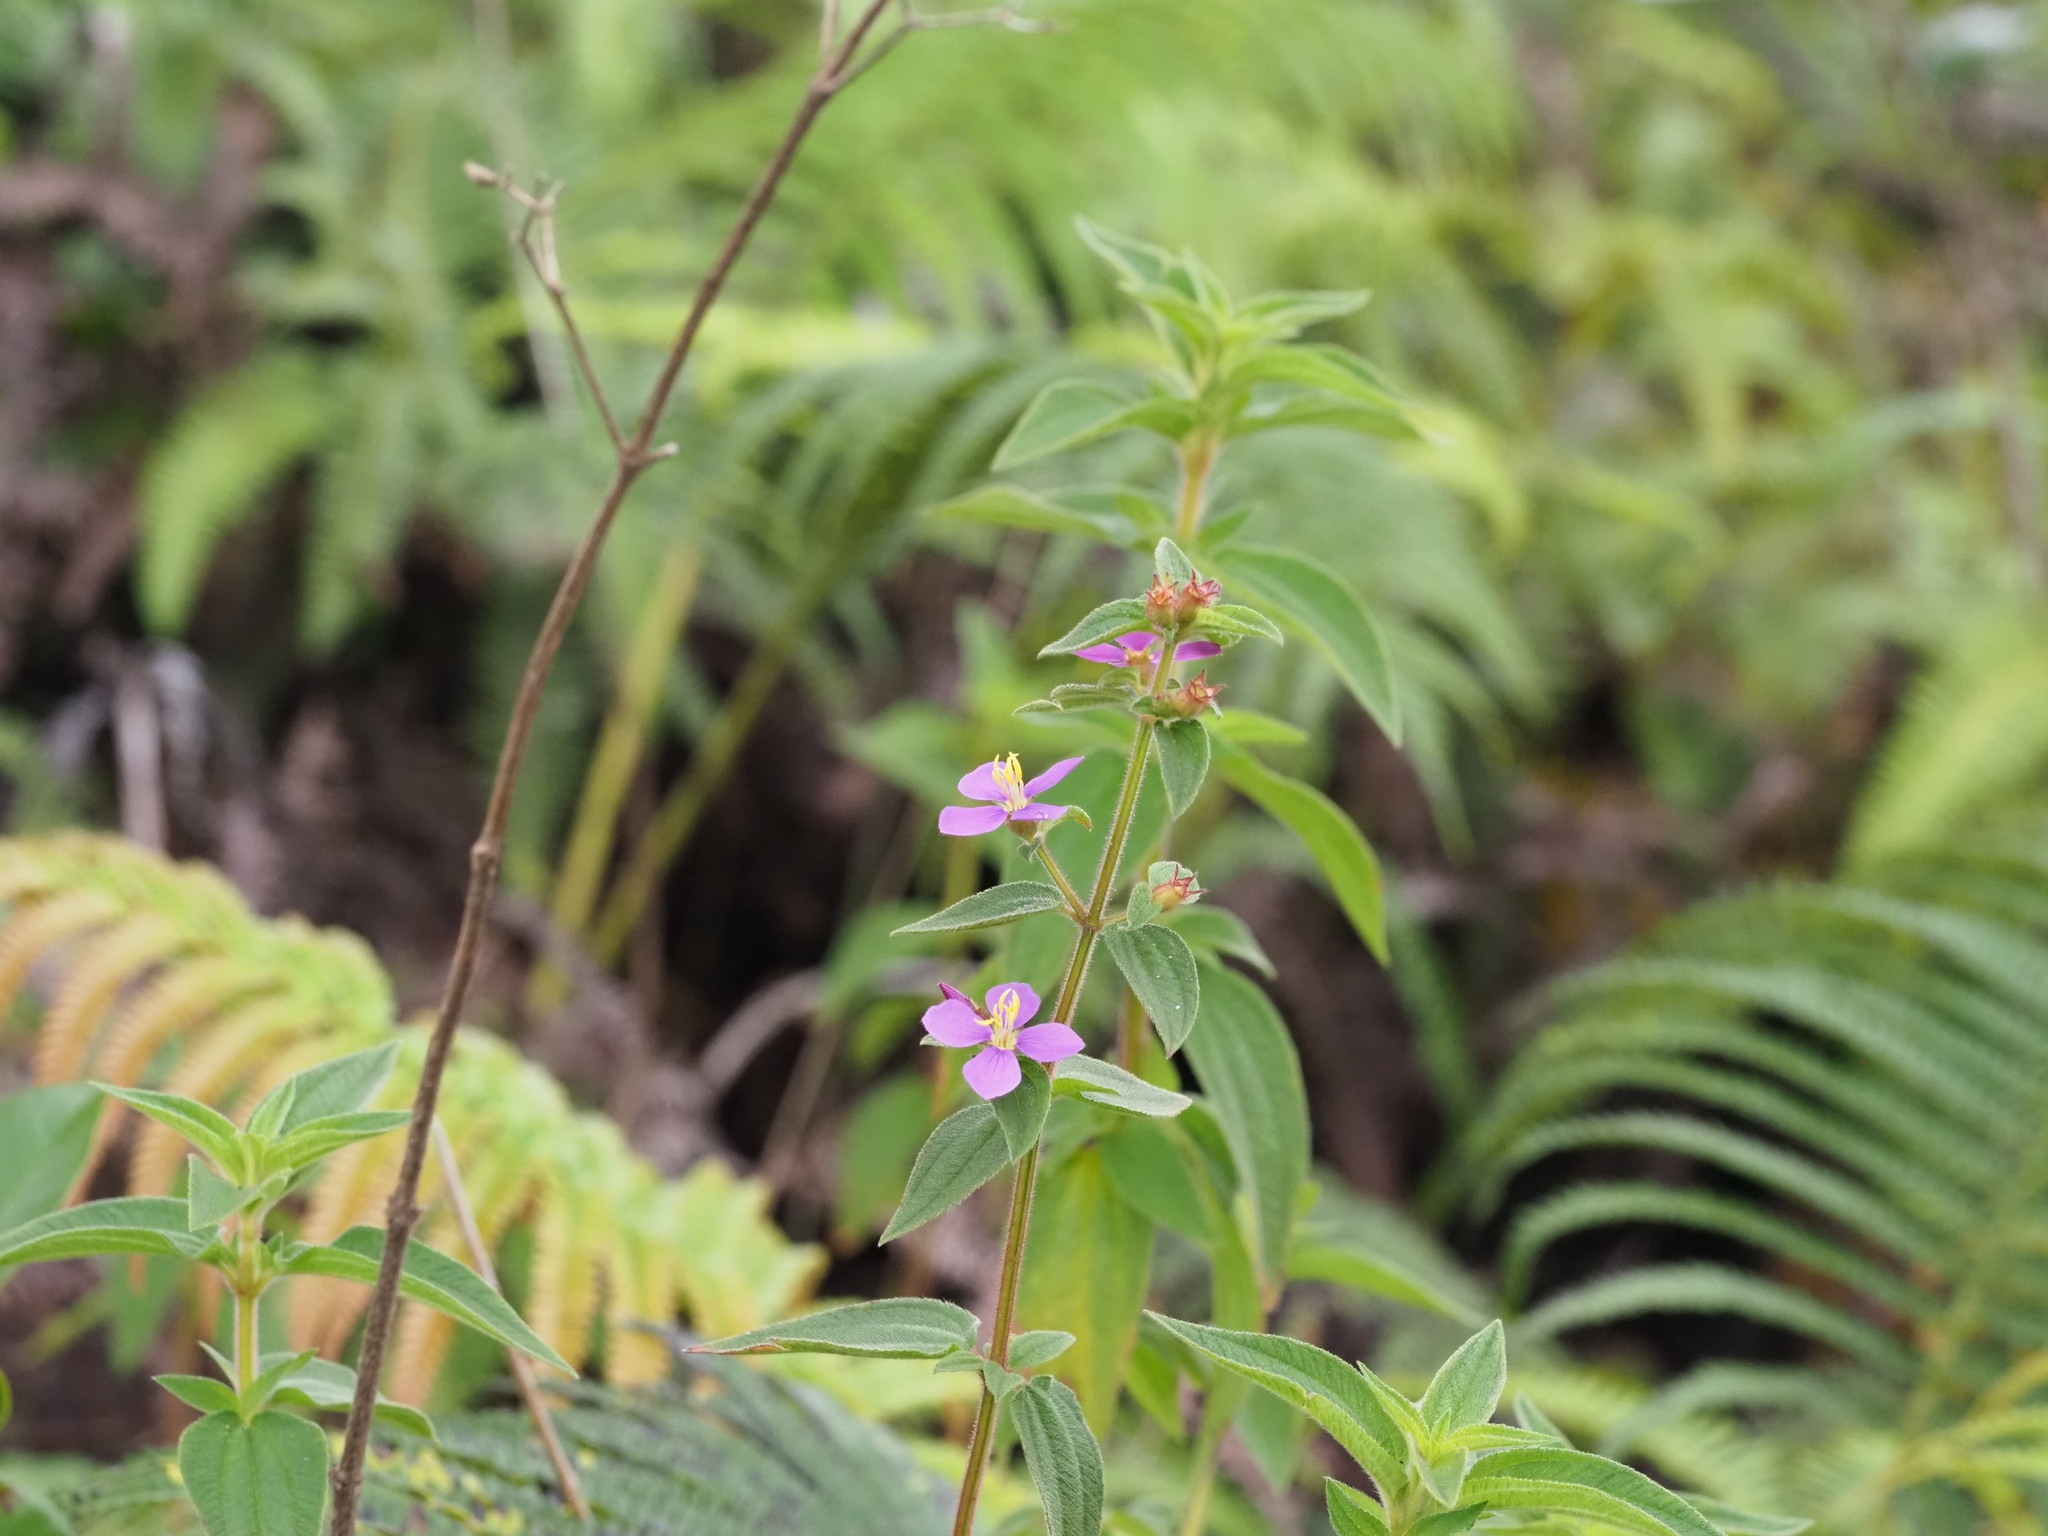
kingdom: Plantae
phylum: Tracheophyta
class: Magnoliopsida
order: Myrtales
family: Melastomataceae
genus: Chaetogastra
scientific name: Chaetogastra herbacea
